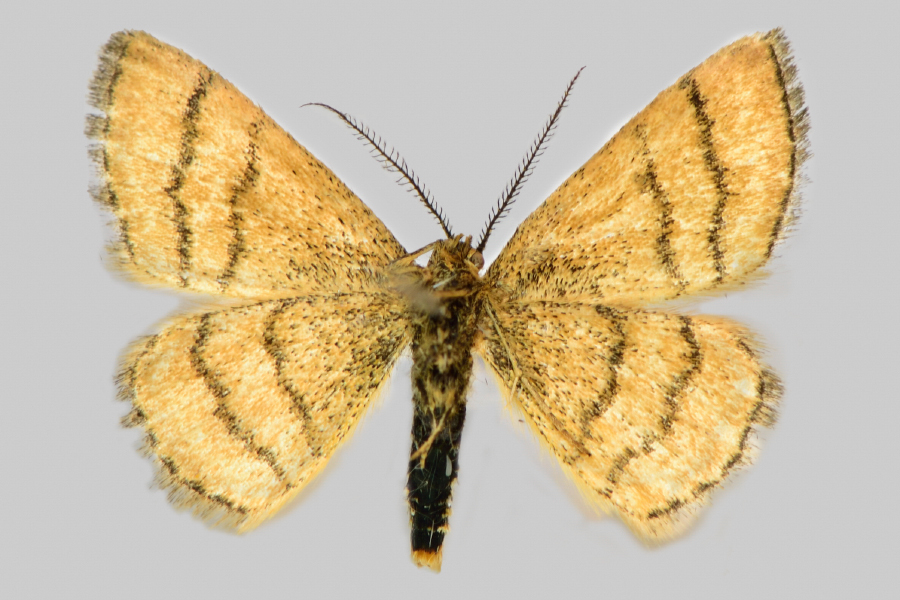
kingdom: Animalia
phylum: Arthropoda
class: Insecta
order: Lepidoptera
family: Geometridae
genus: Cleta
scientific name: Cleta filacearia
